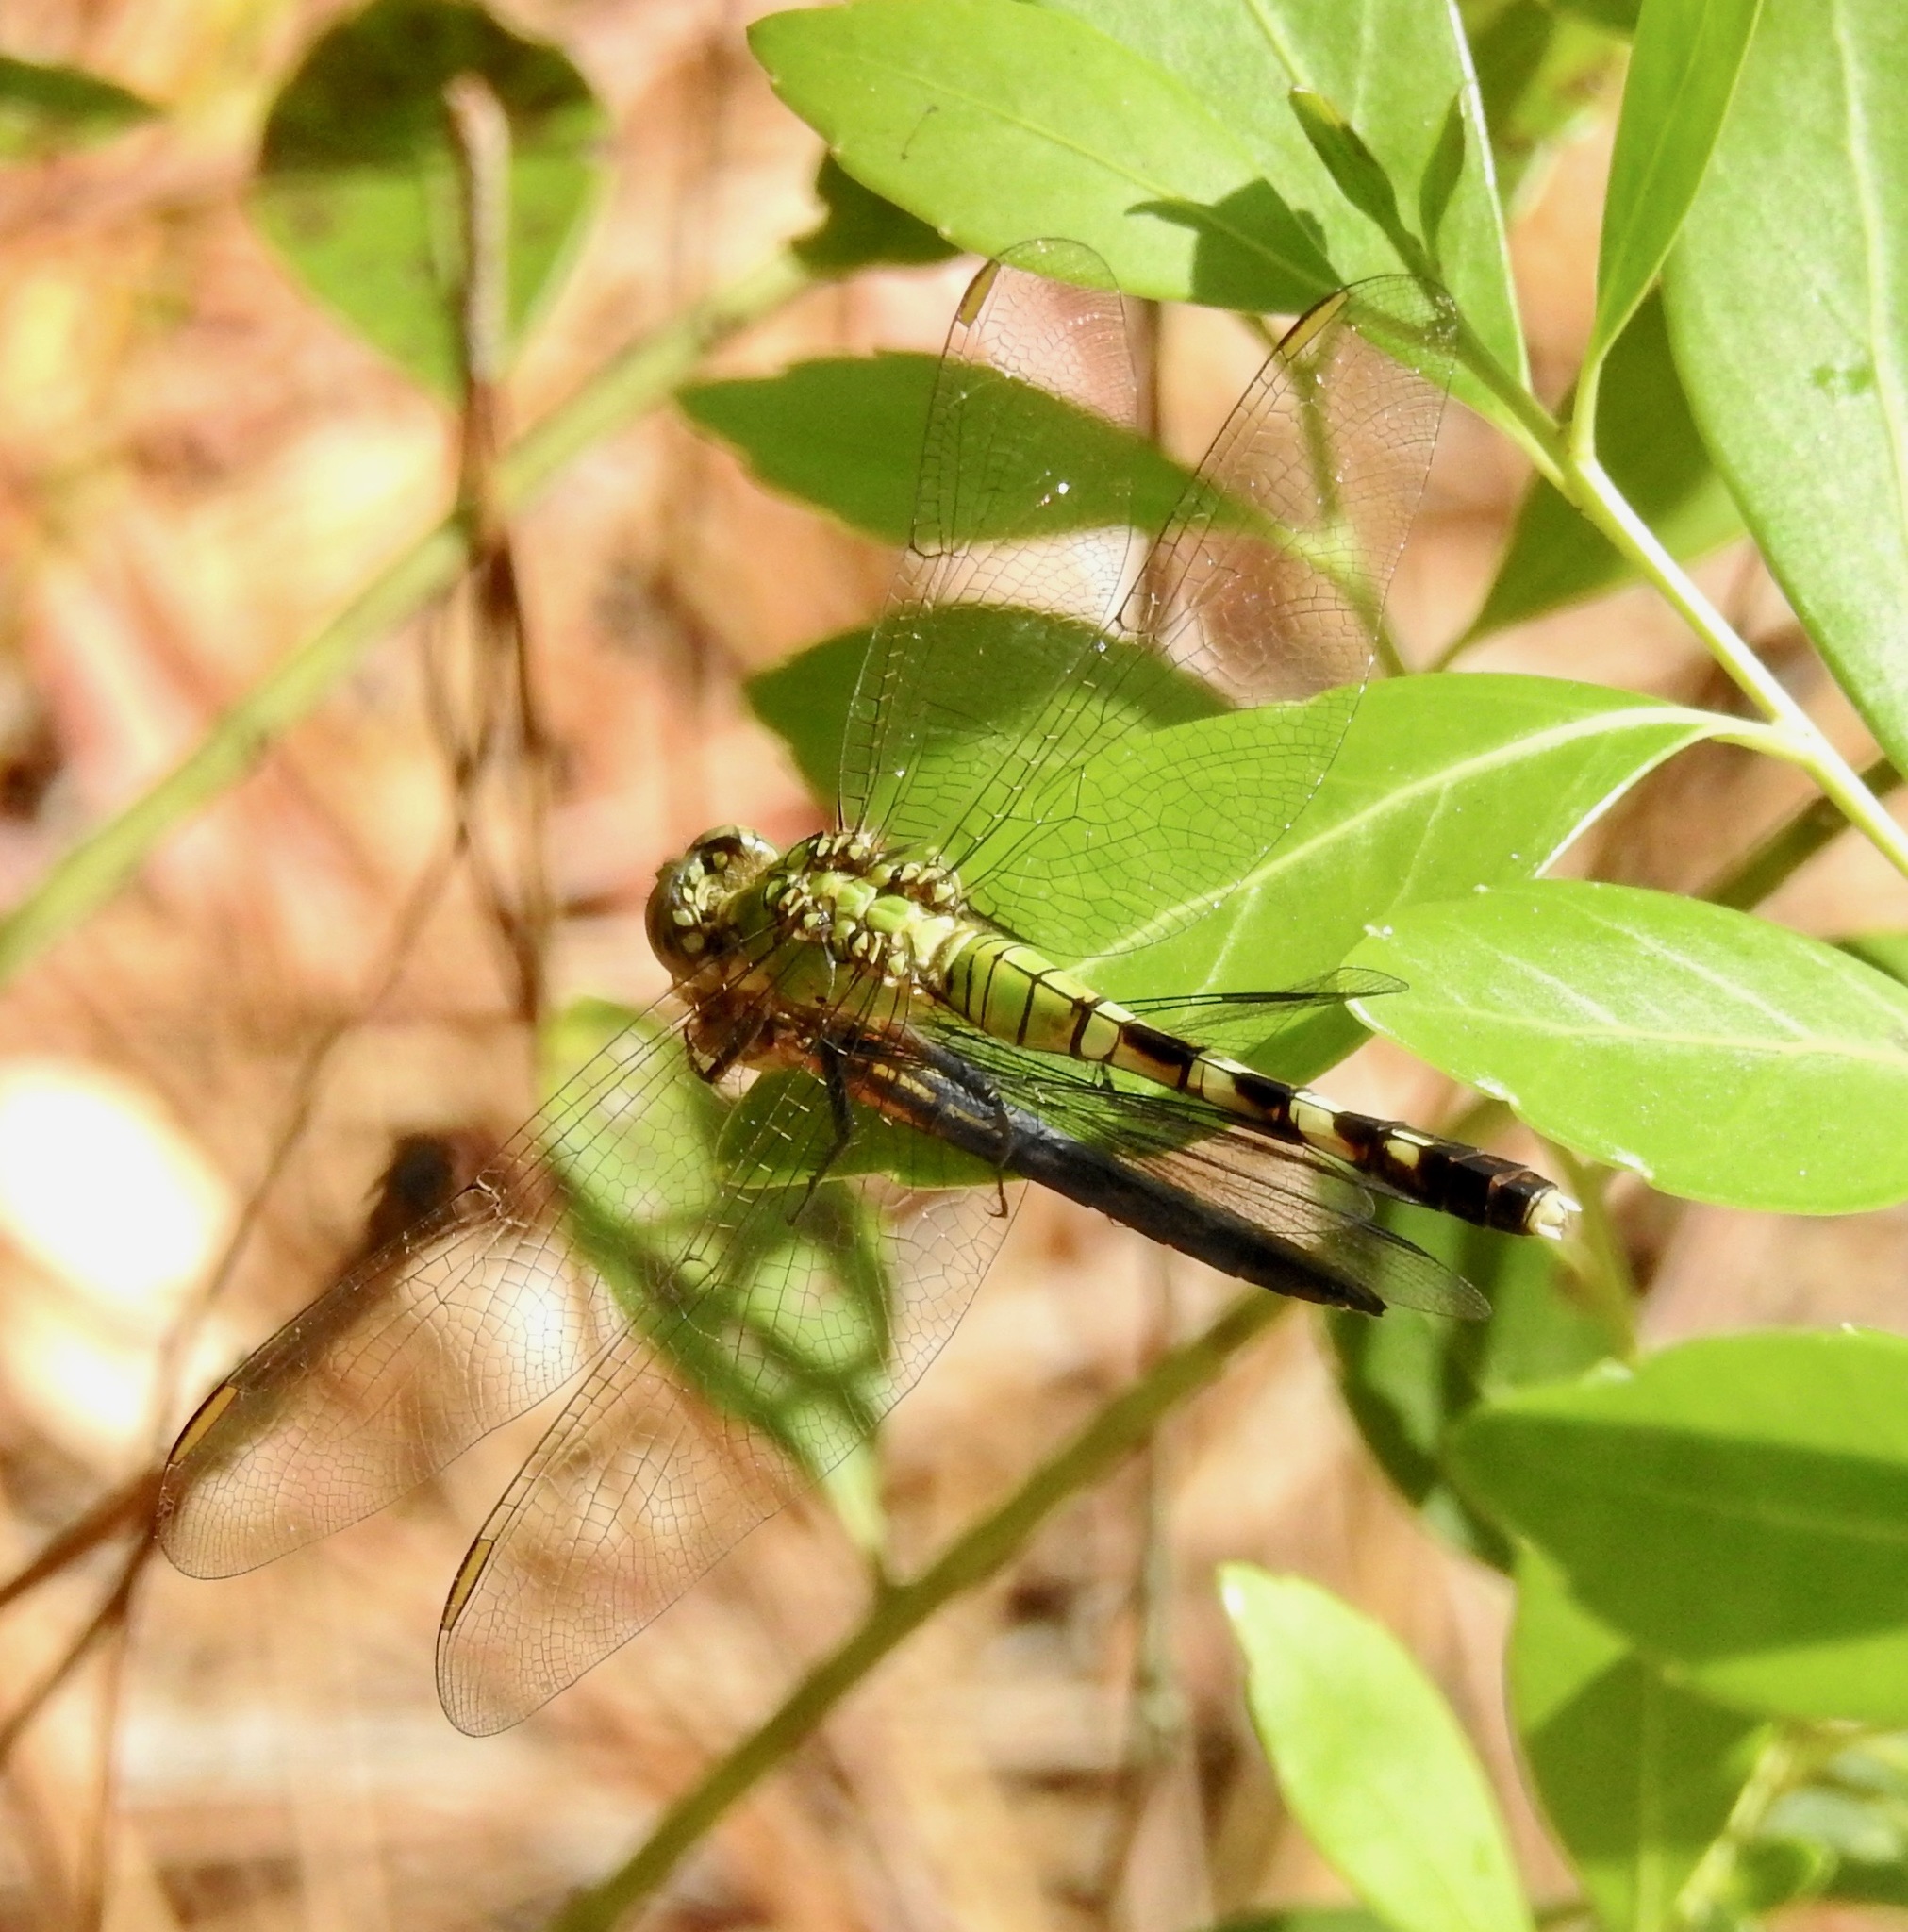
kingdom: Animalia
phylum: Arthropoda
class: Insecta
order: Odonata
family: Libellulidae
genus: Erythemis
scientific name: Erythemis simplicicollis
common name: Eastern pondhawk
